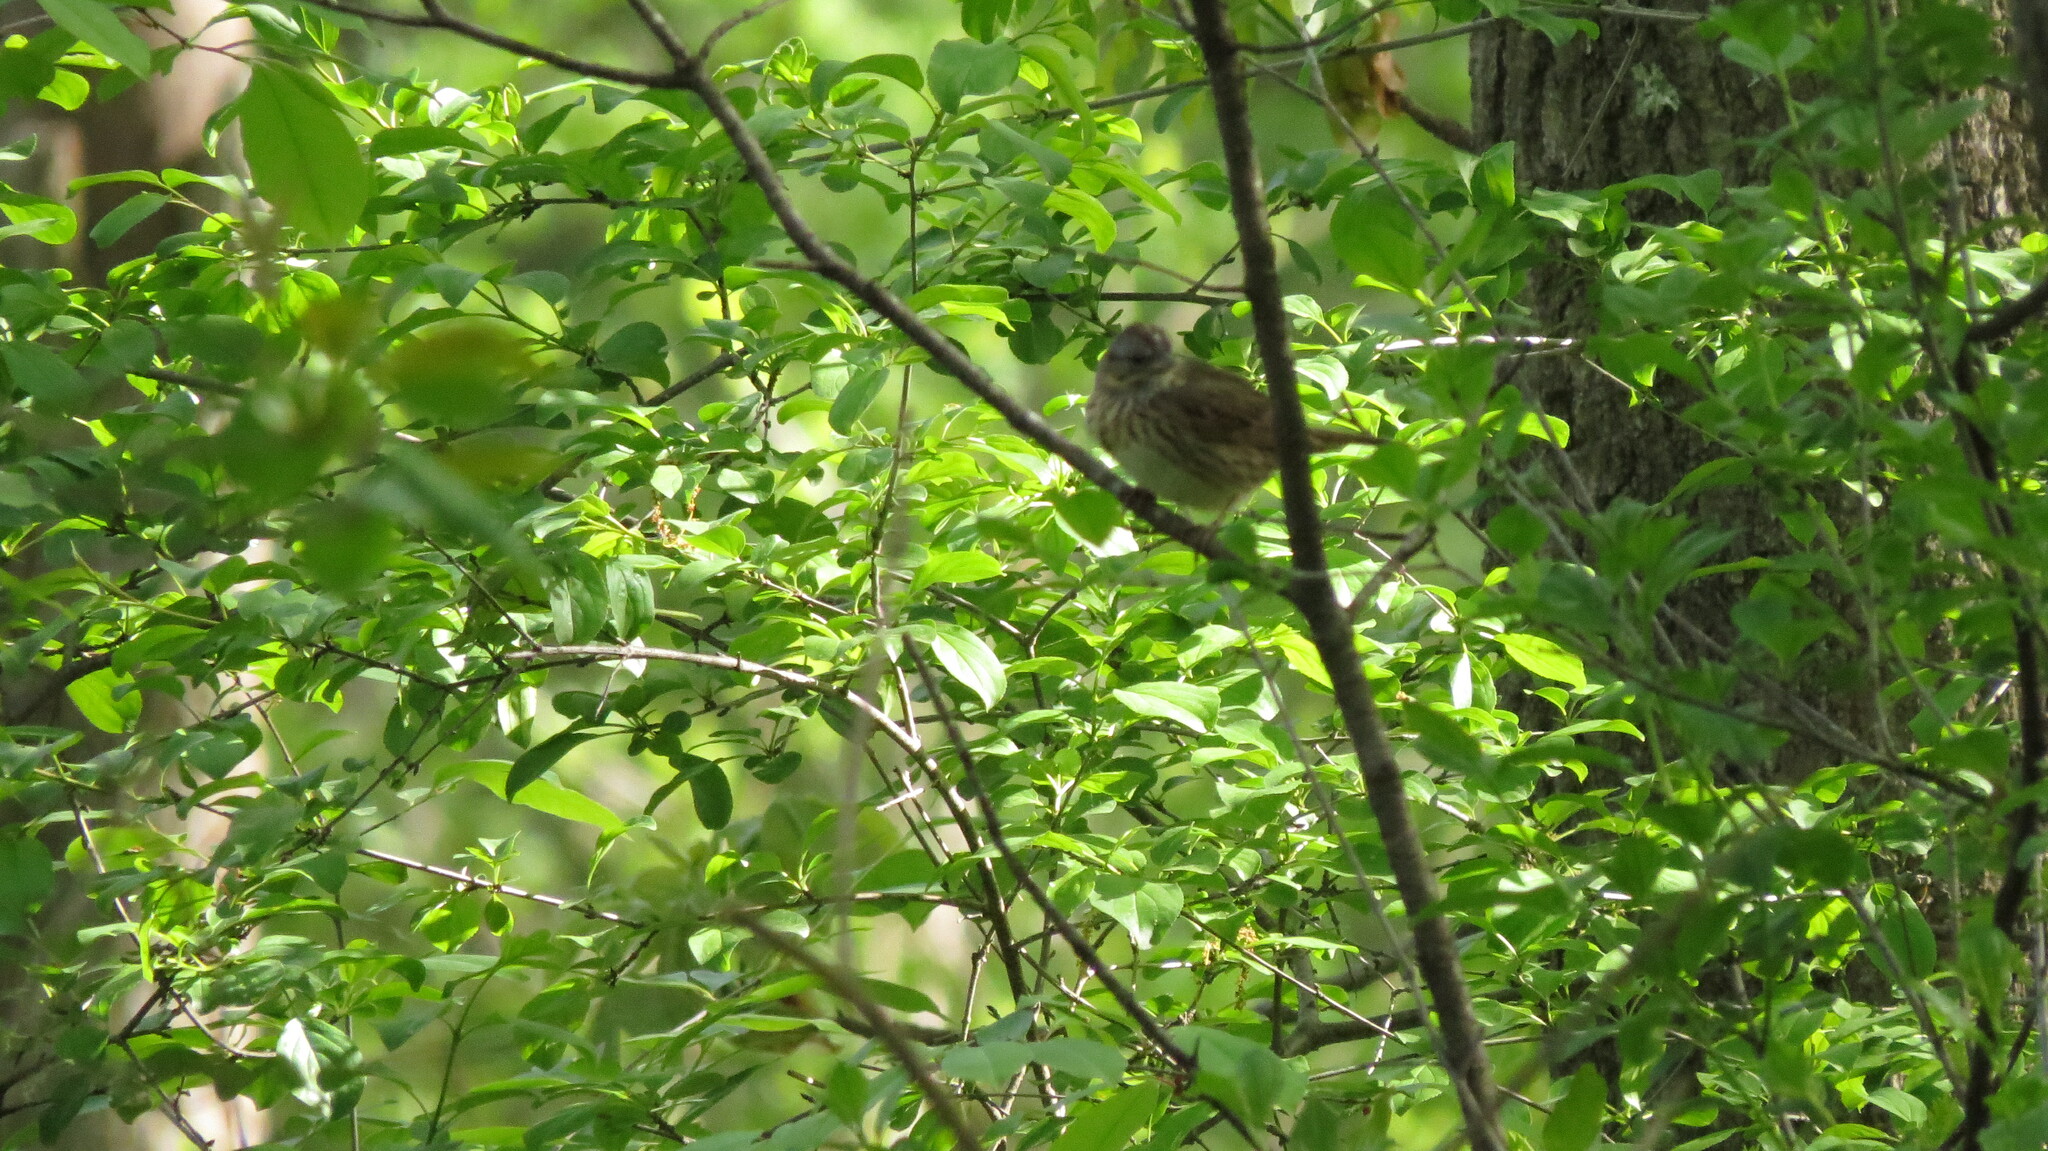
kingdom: Animalia
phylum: Chordata
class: Aves
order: Passeriformes
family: Passerellidae
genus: Melospiza
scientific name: Melospiza lincolnii
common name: Lincoln's sparrow
